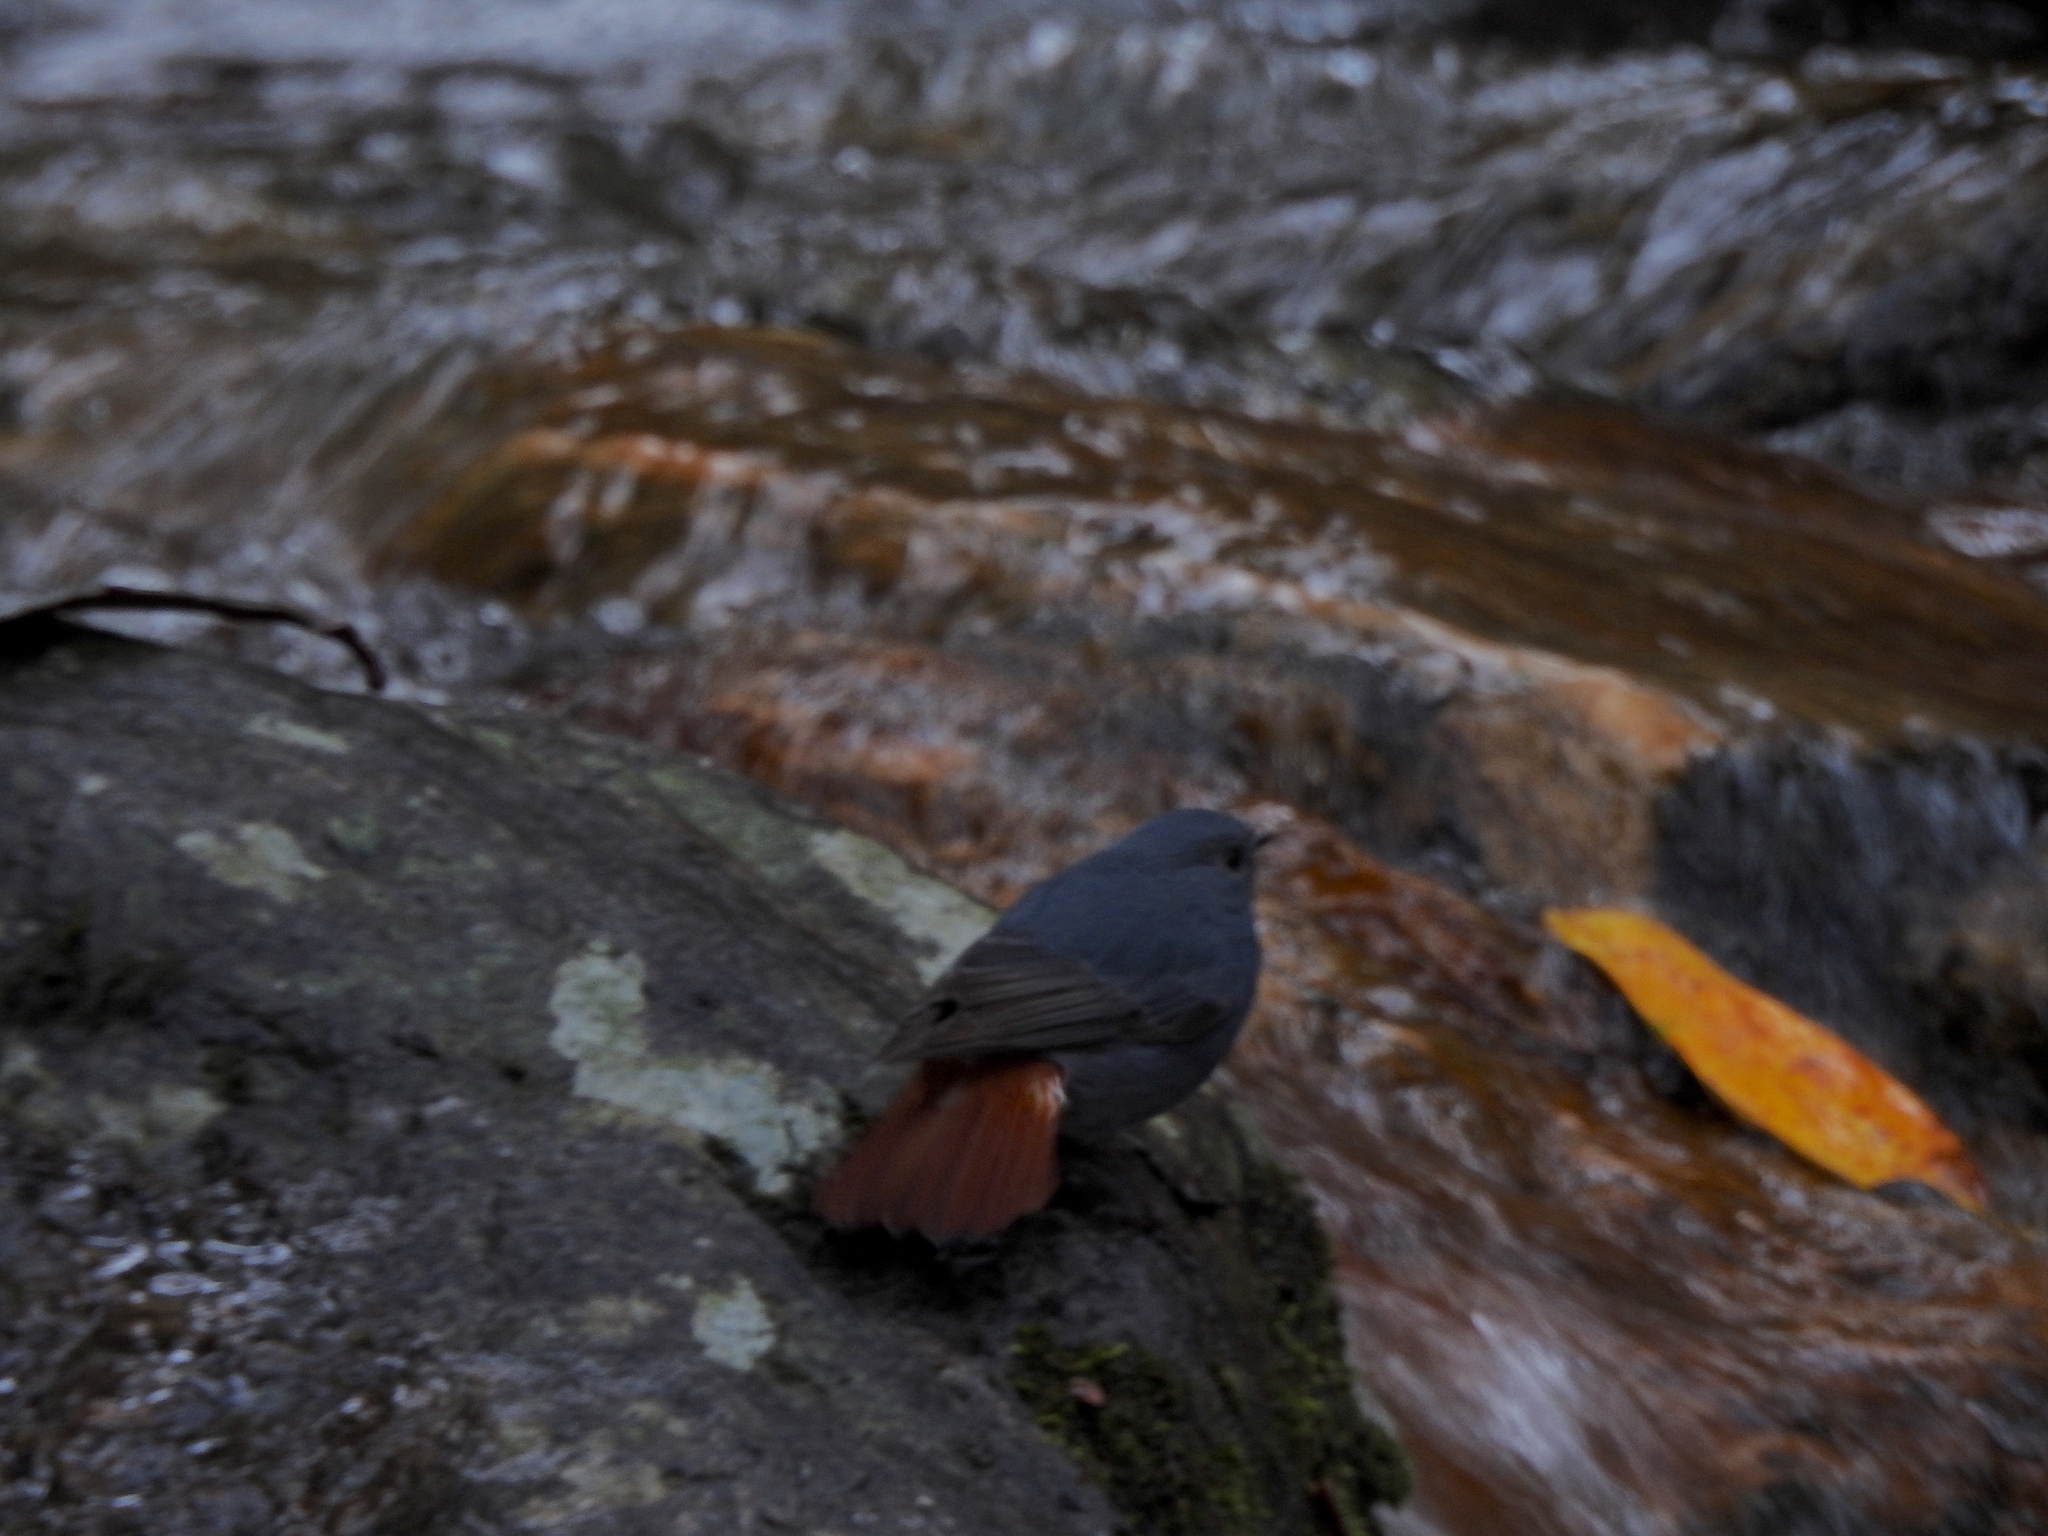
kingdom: Animalia
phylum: Chordata
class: Aves
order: Passeriformes
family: Muscicapidae
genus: Phoenicurus
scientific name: Phoenicurus fuliginosus
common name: Plumbeous water redstart
